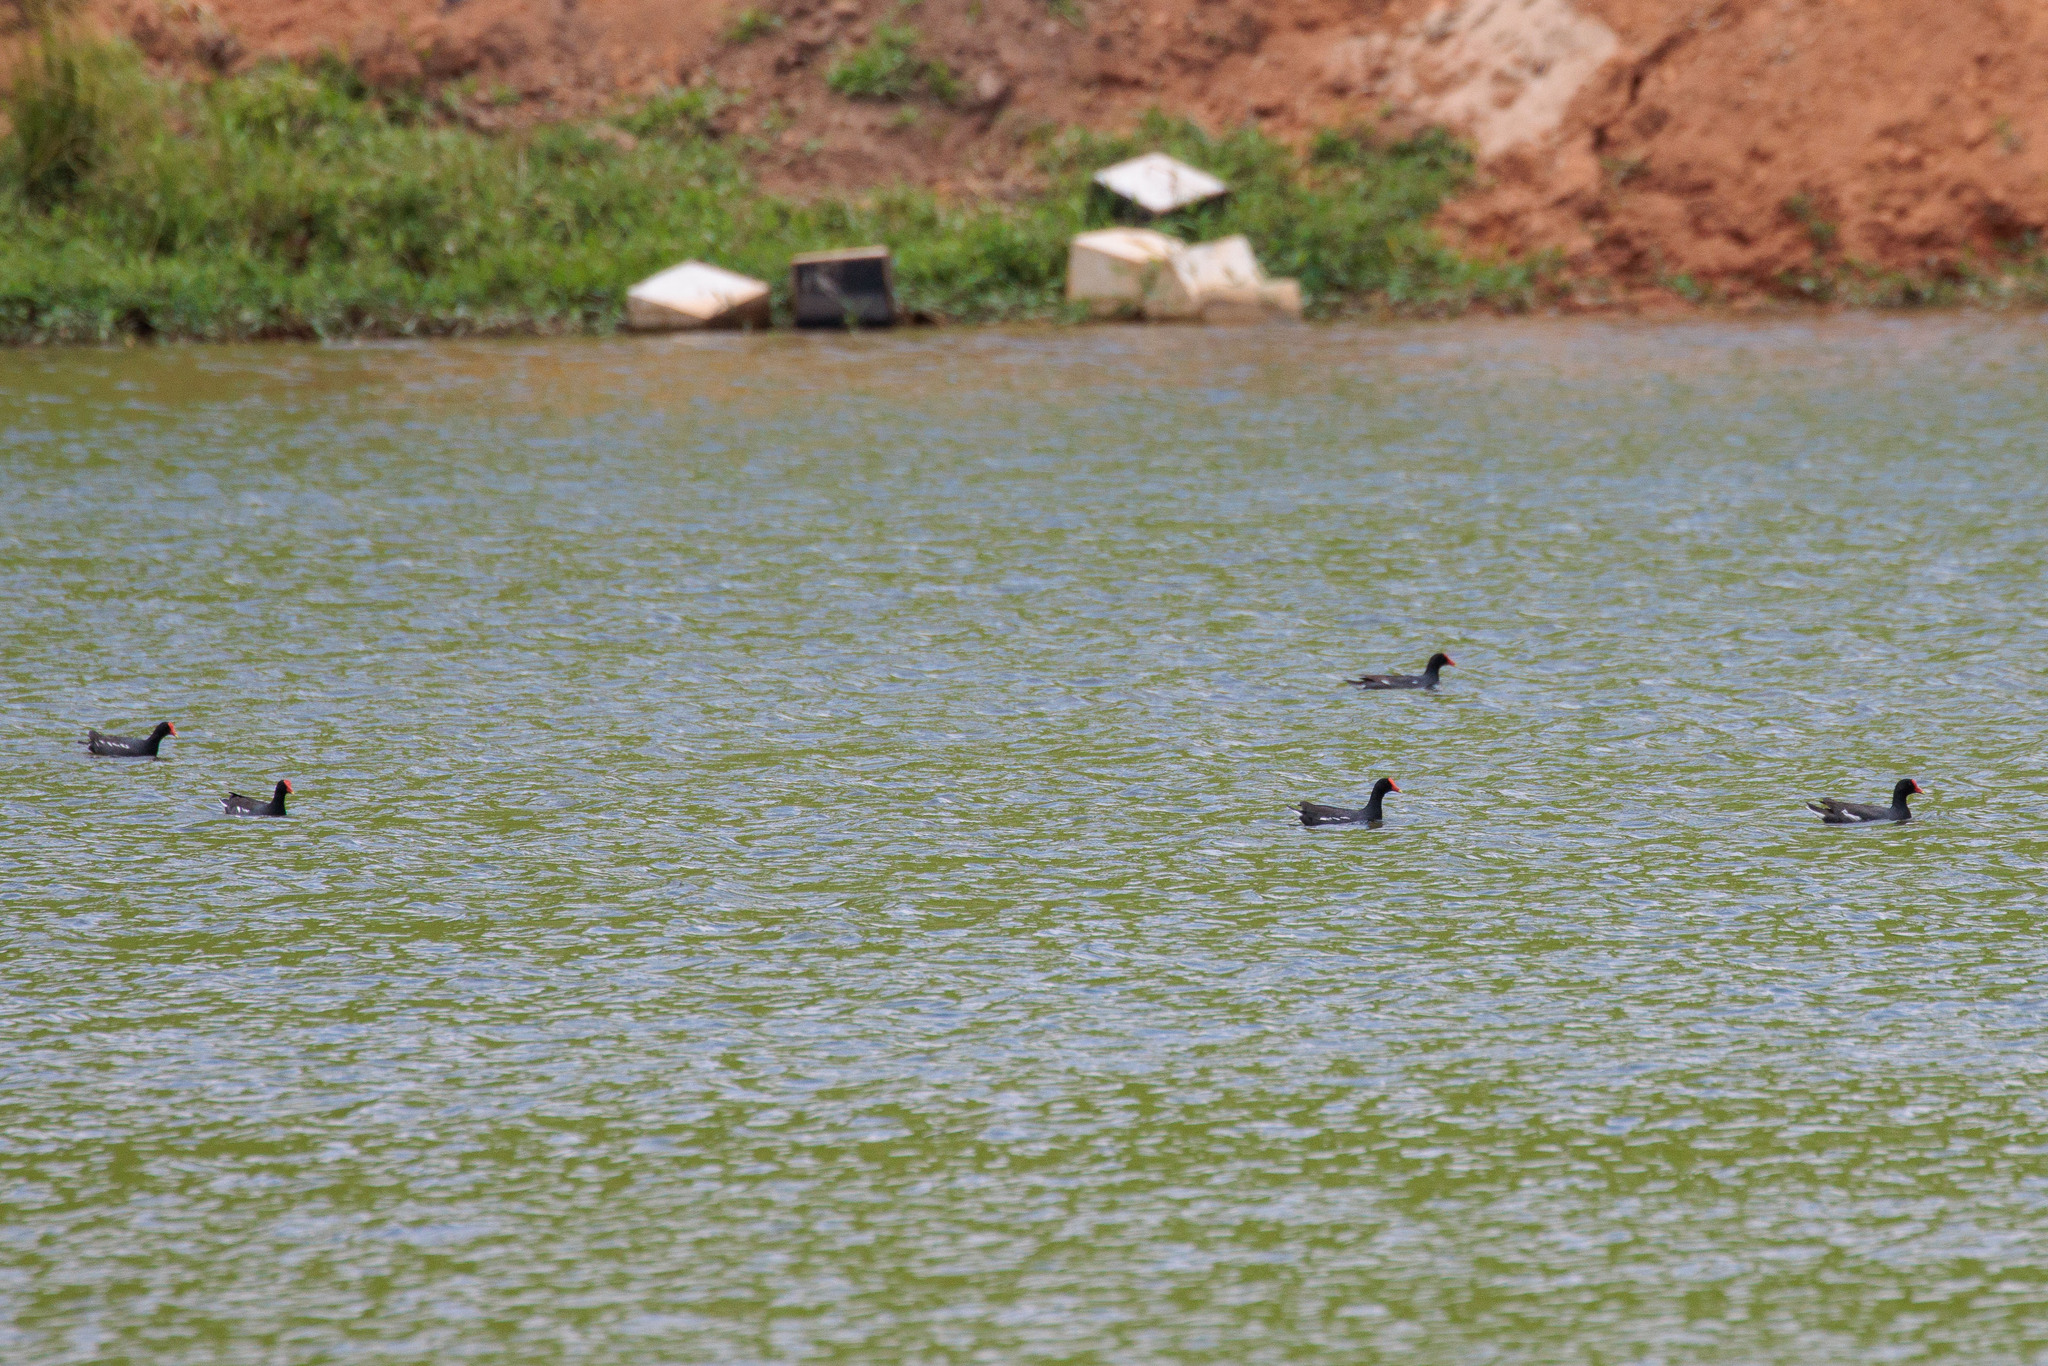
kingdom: Animalia
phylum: Chordata
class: Aves
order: Gruiformes
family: Rallidae
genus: Gallinula
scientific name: Gallinula chloropus
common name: Common moorhen
